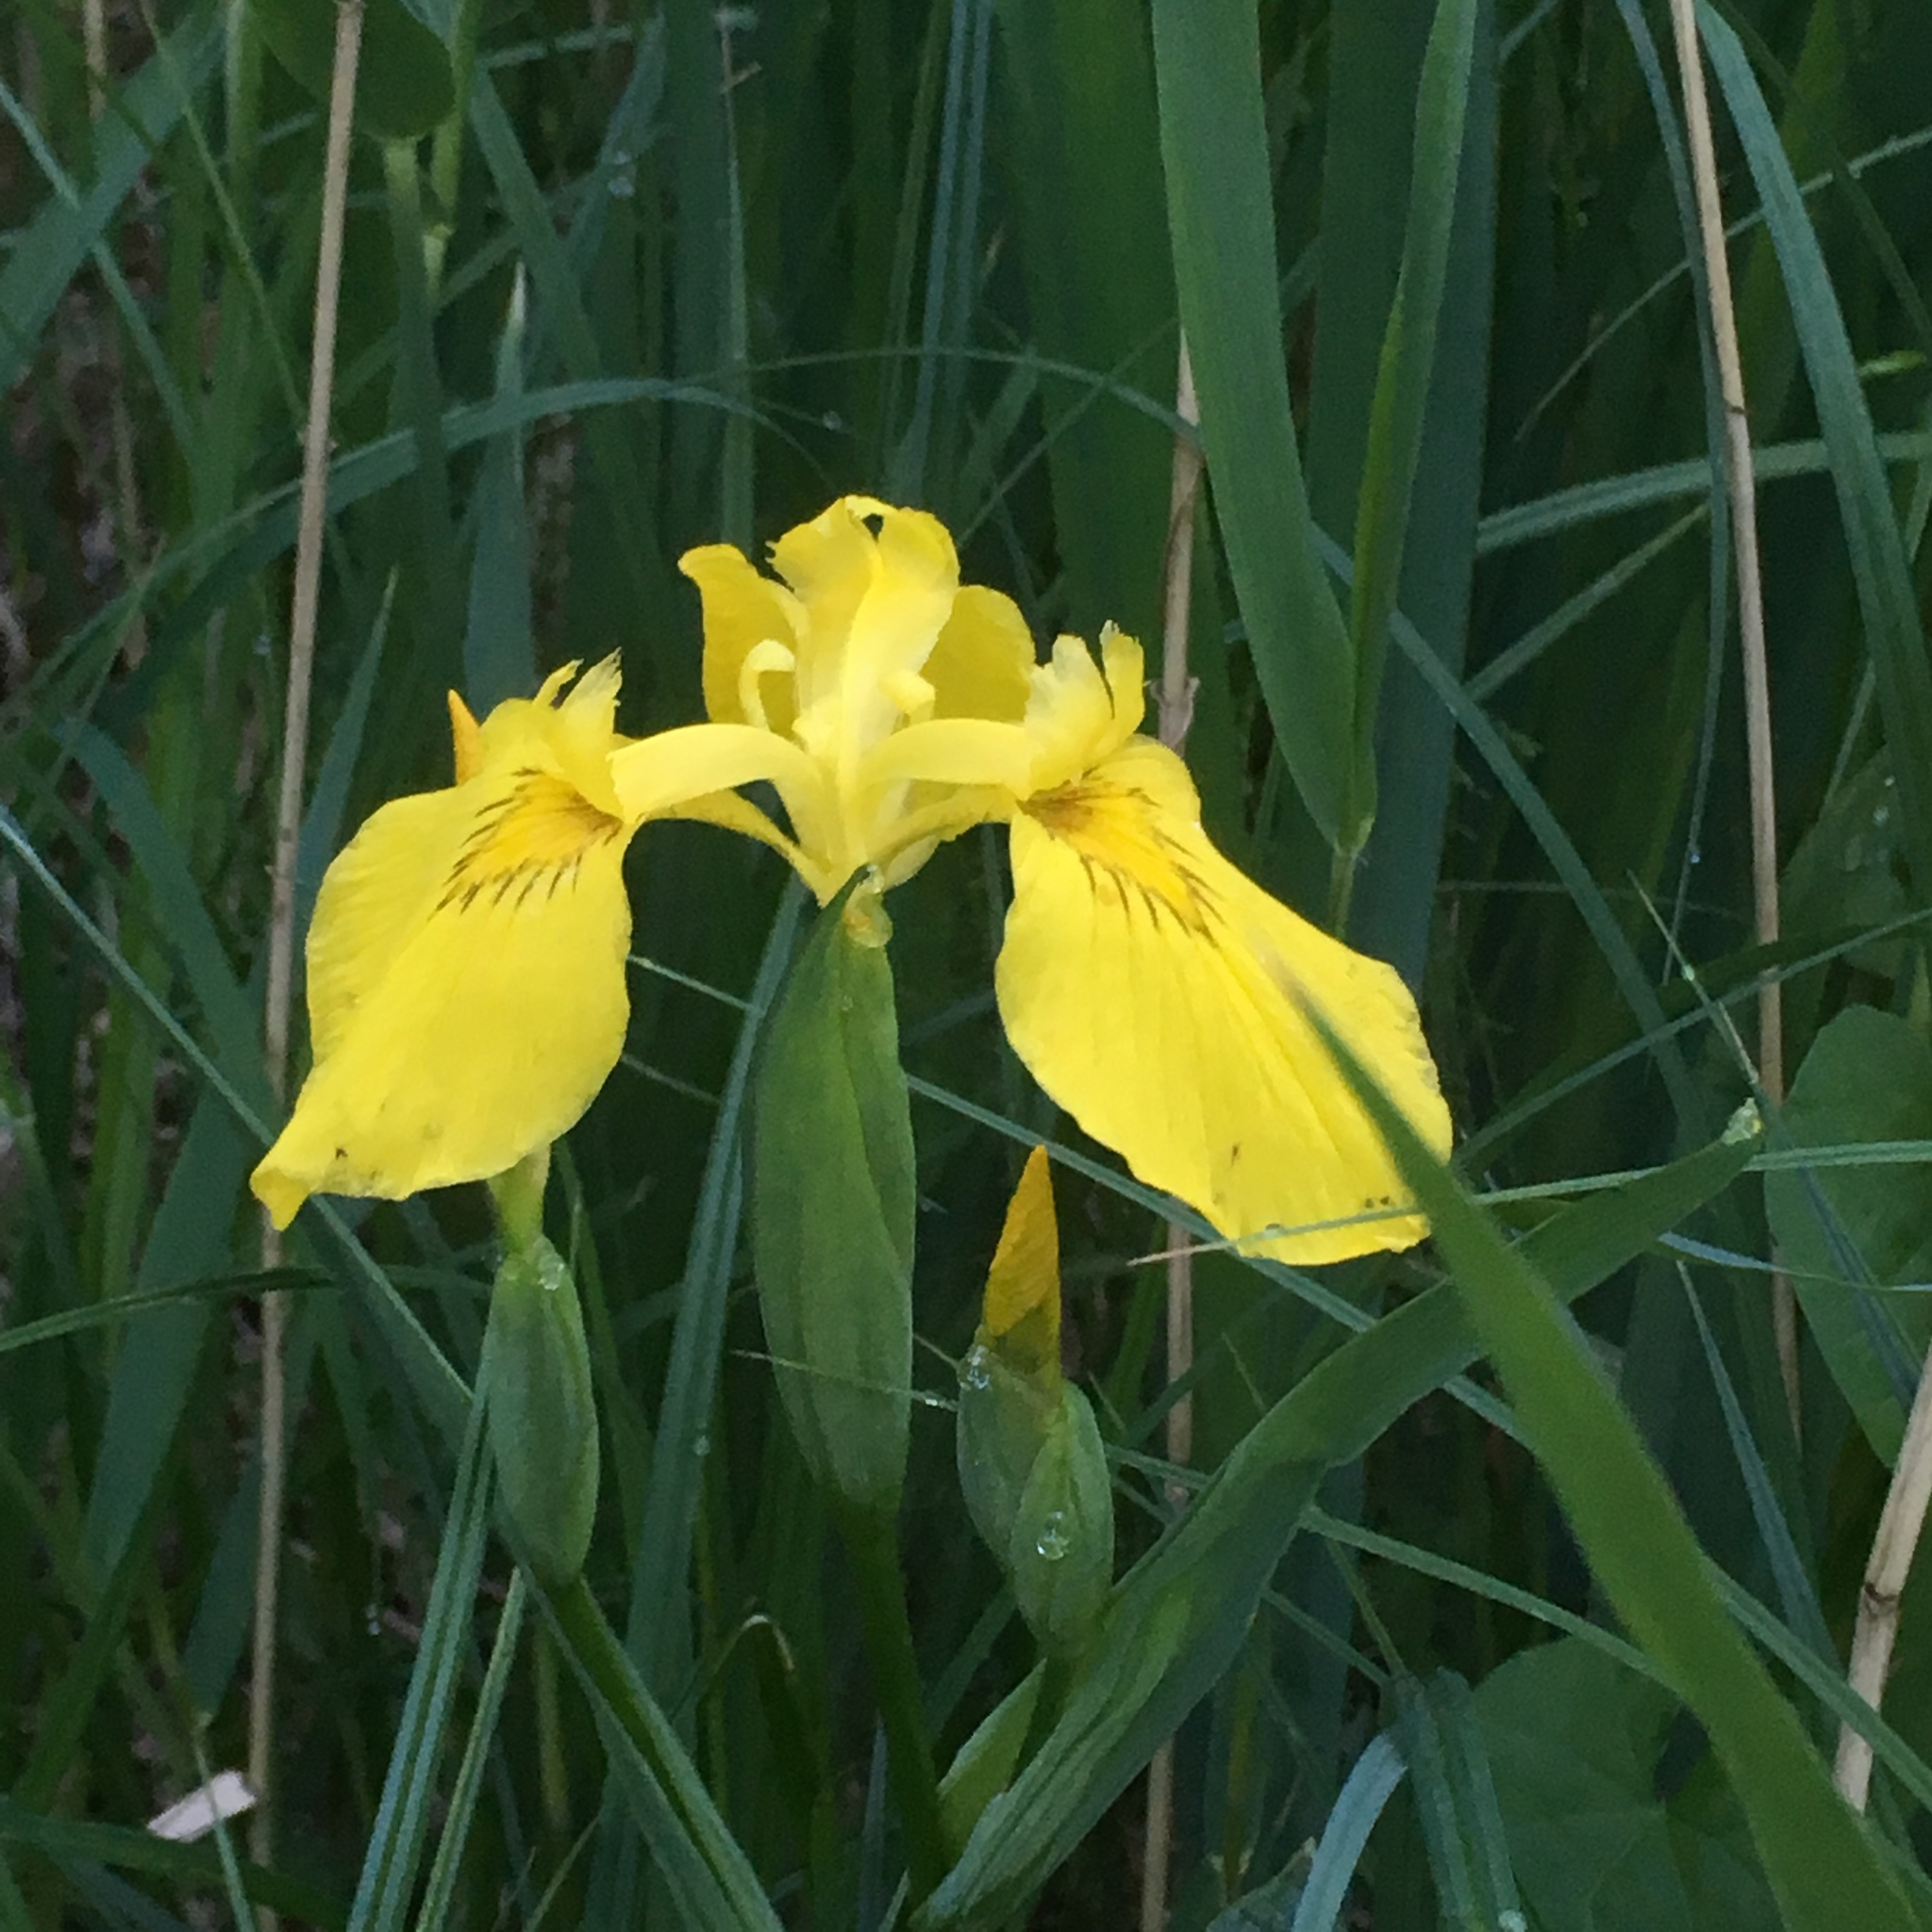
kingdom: Plantae
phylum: Tracheophyta
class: Liliopsida
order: Asparagales
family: Iridaceae
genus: Iris
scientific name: Iris pseudacorus
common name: Yellow flag
